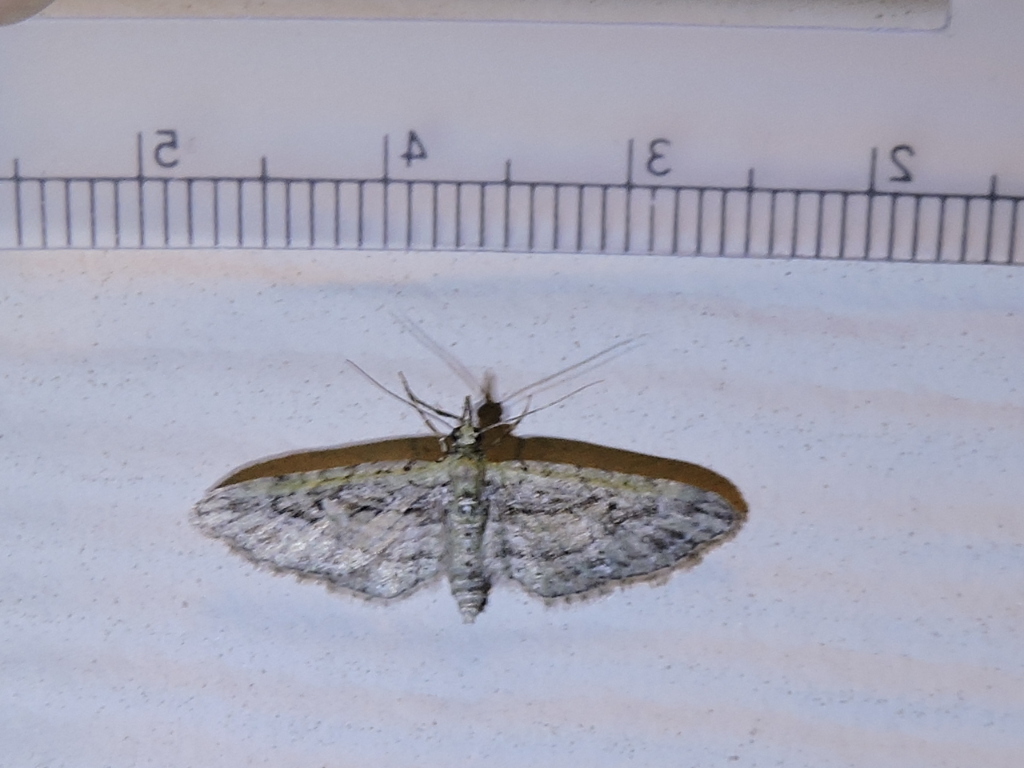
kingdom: Animalia
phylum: Arthropoda
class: Insecta
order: Lepidoptera
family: Geometridae
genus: Eupithecia
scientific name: Eupithecia longidens
